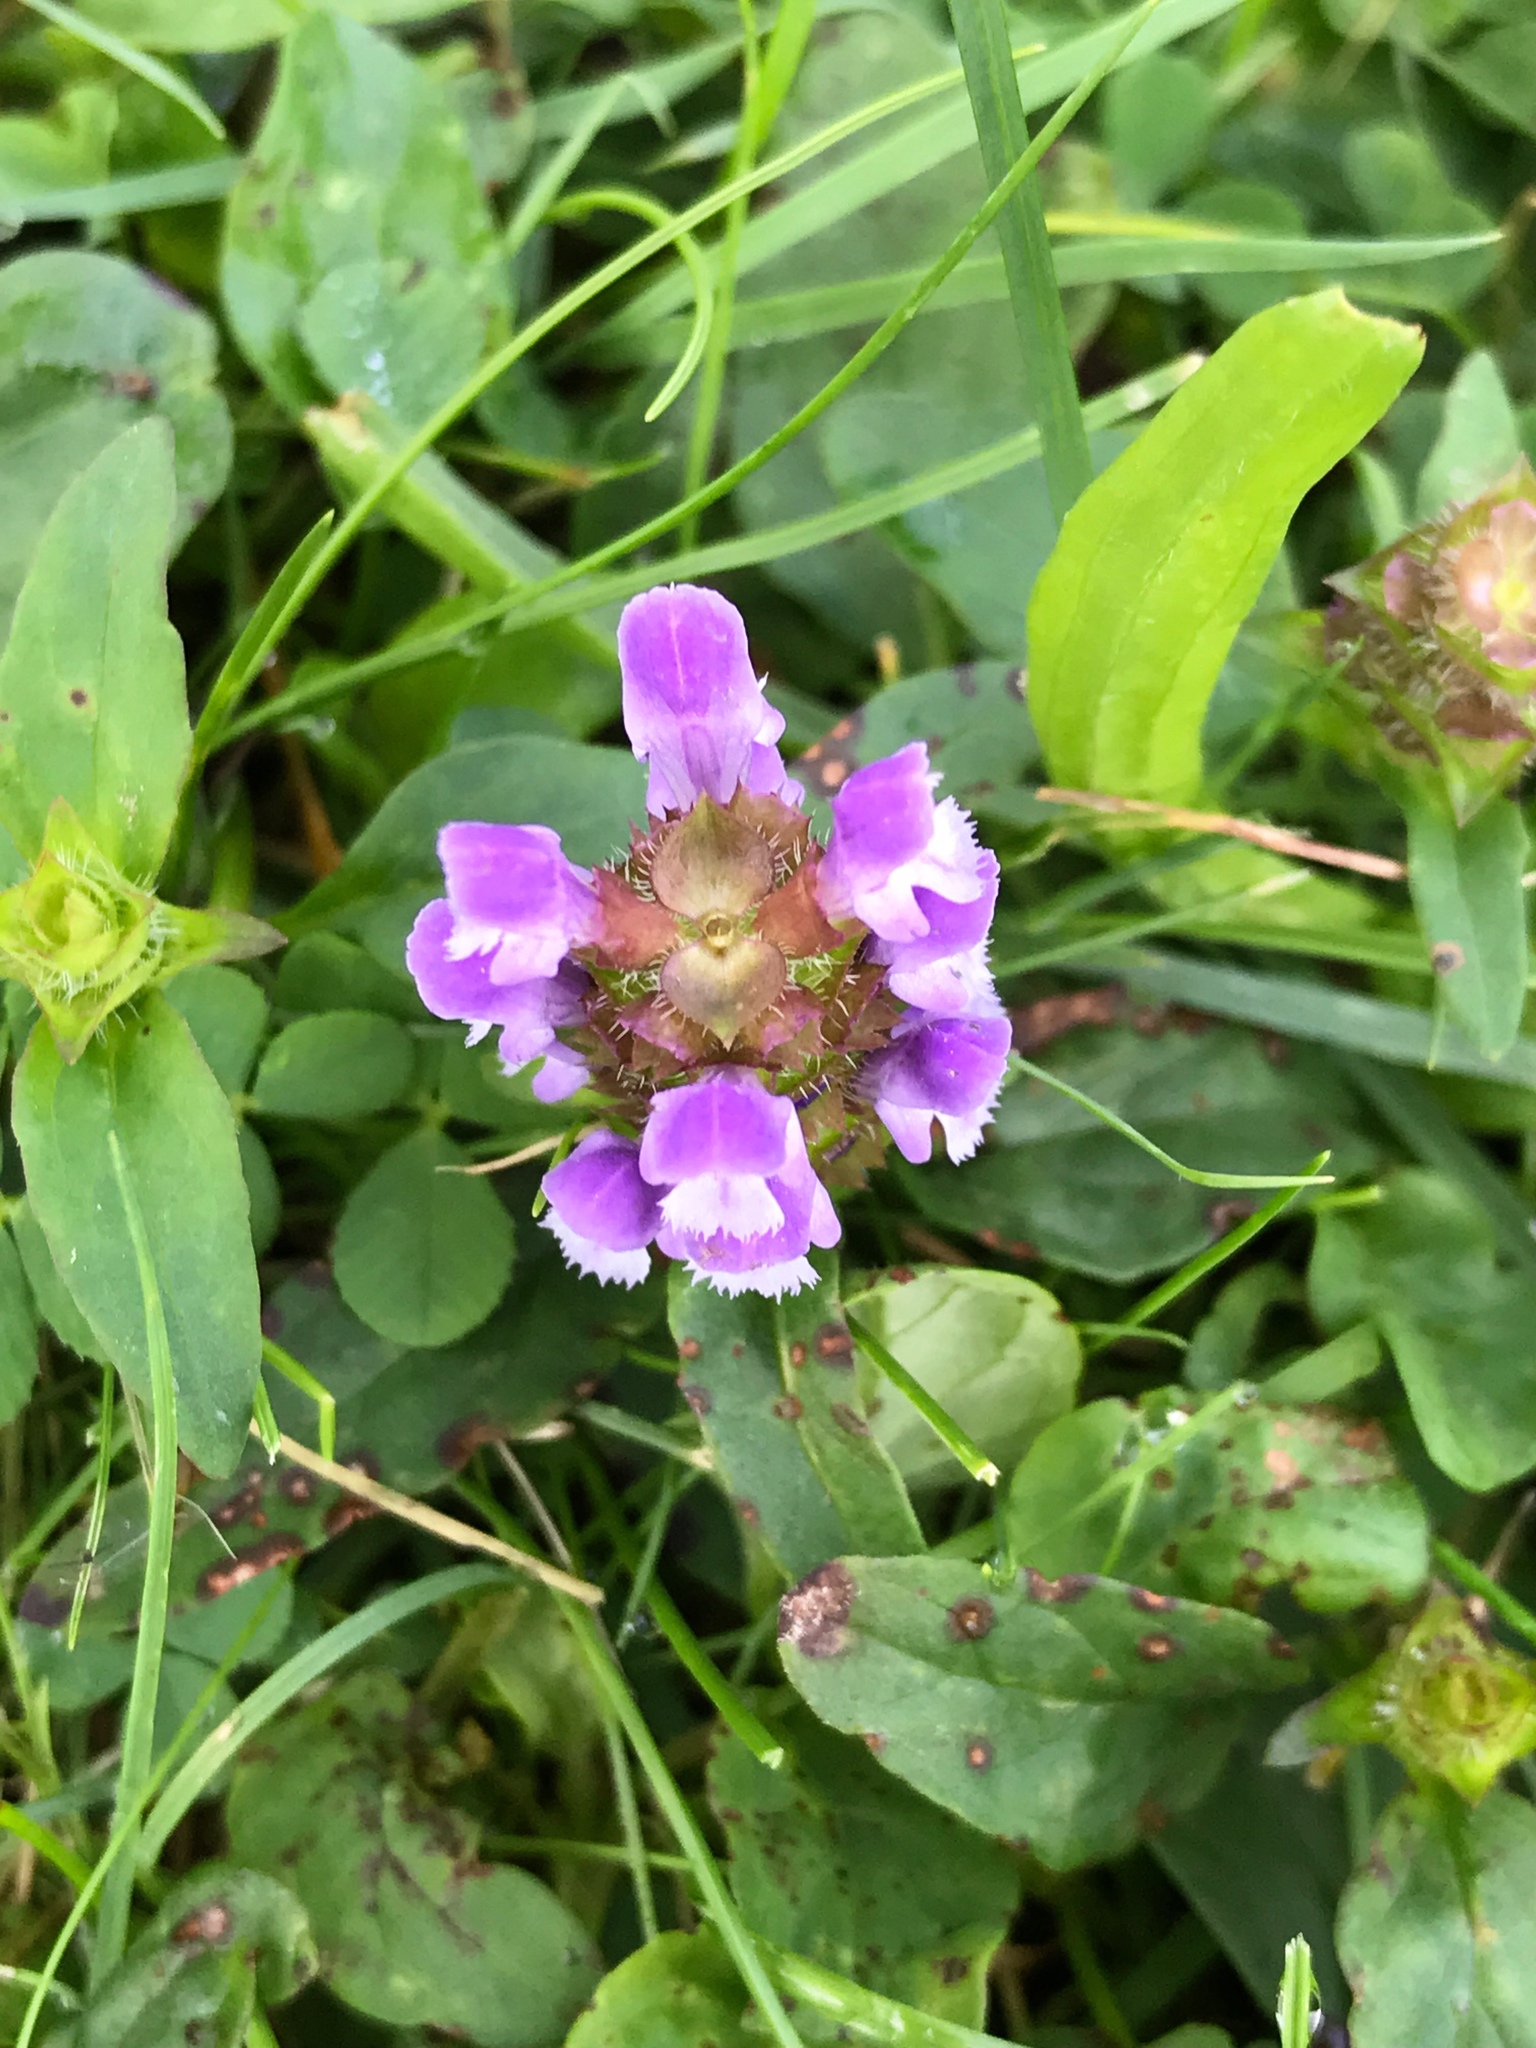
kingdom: Plantae
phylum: Tracheophyta
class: Magnoliopsida
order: Lamiales
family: Lamiaceae
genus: Prunella
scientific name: Prunella vulgaris
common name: Heal-all
